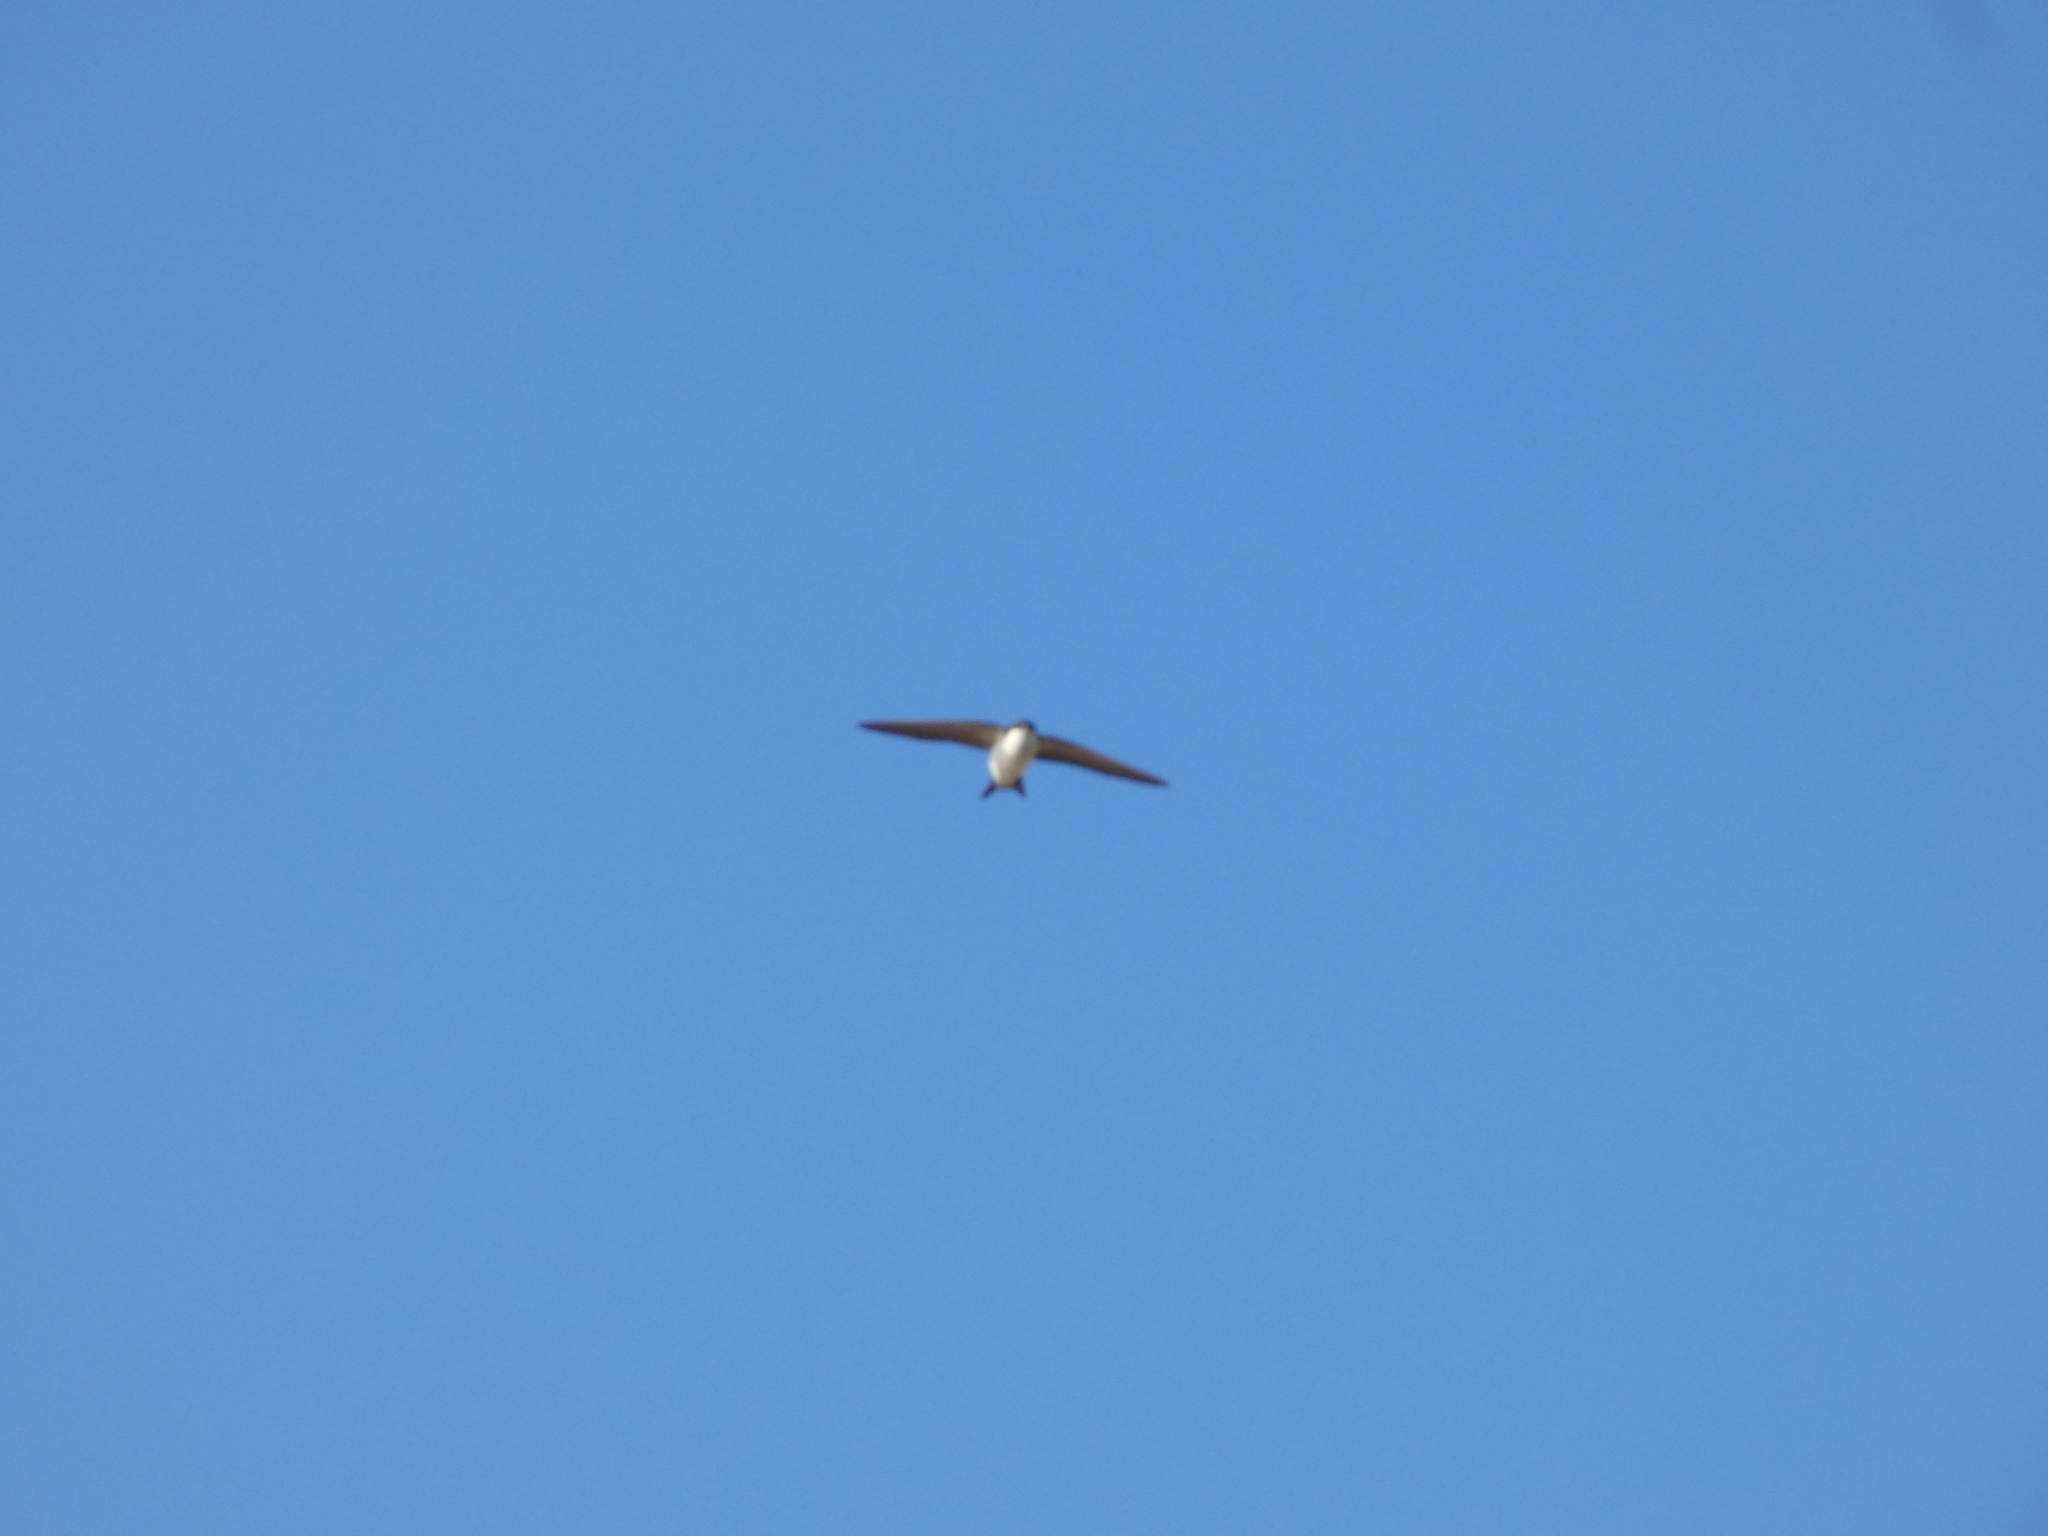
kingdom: Animalia
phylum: Chordata
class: Aves
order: Passeriformes
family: Hirundinidae
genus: Delichon
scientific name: Delichon urbicum
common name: Common house martin
